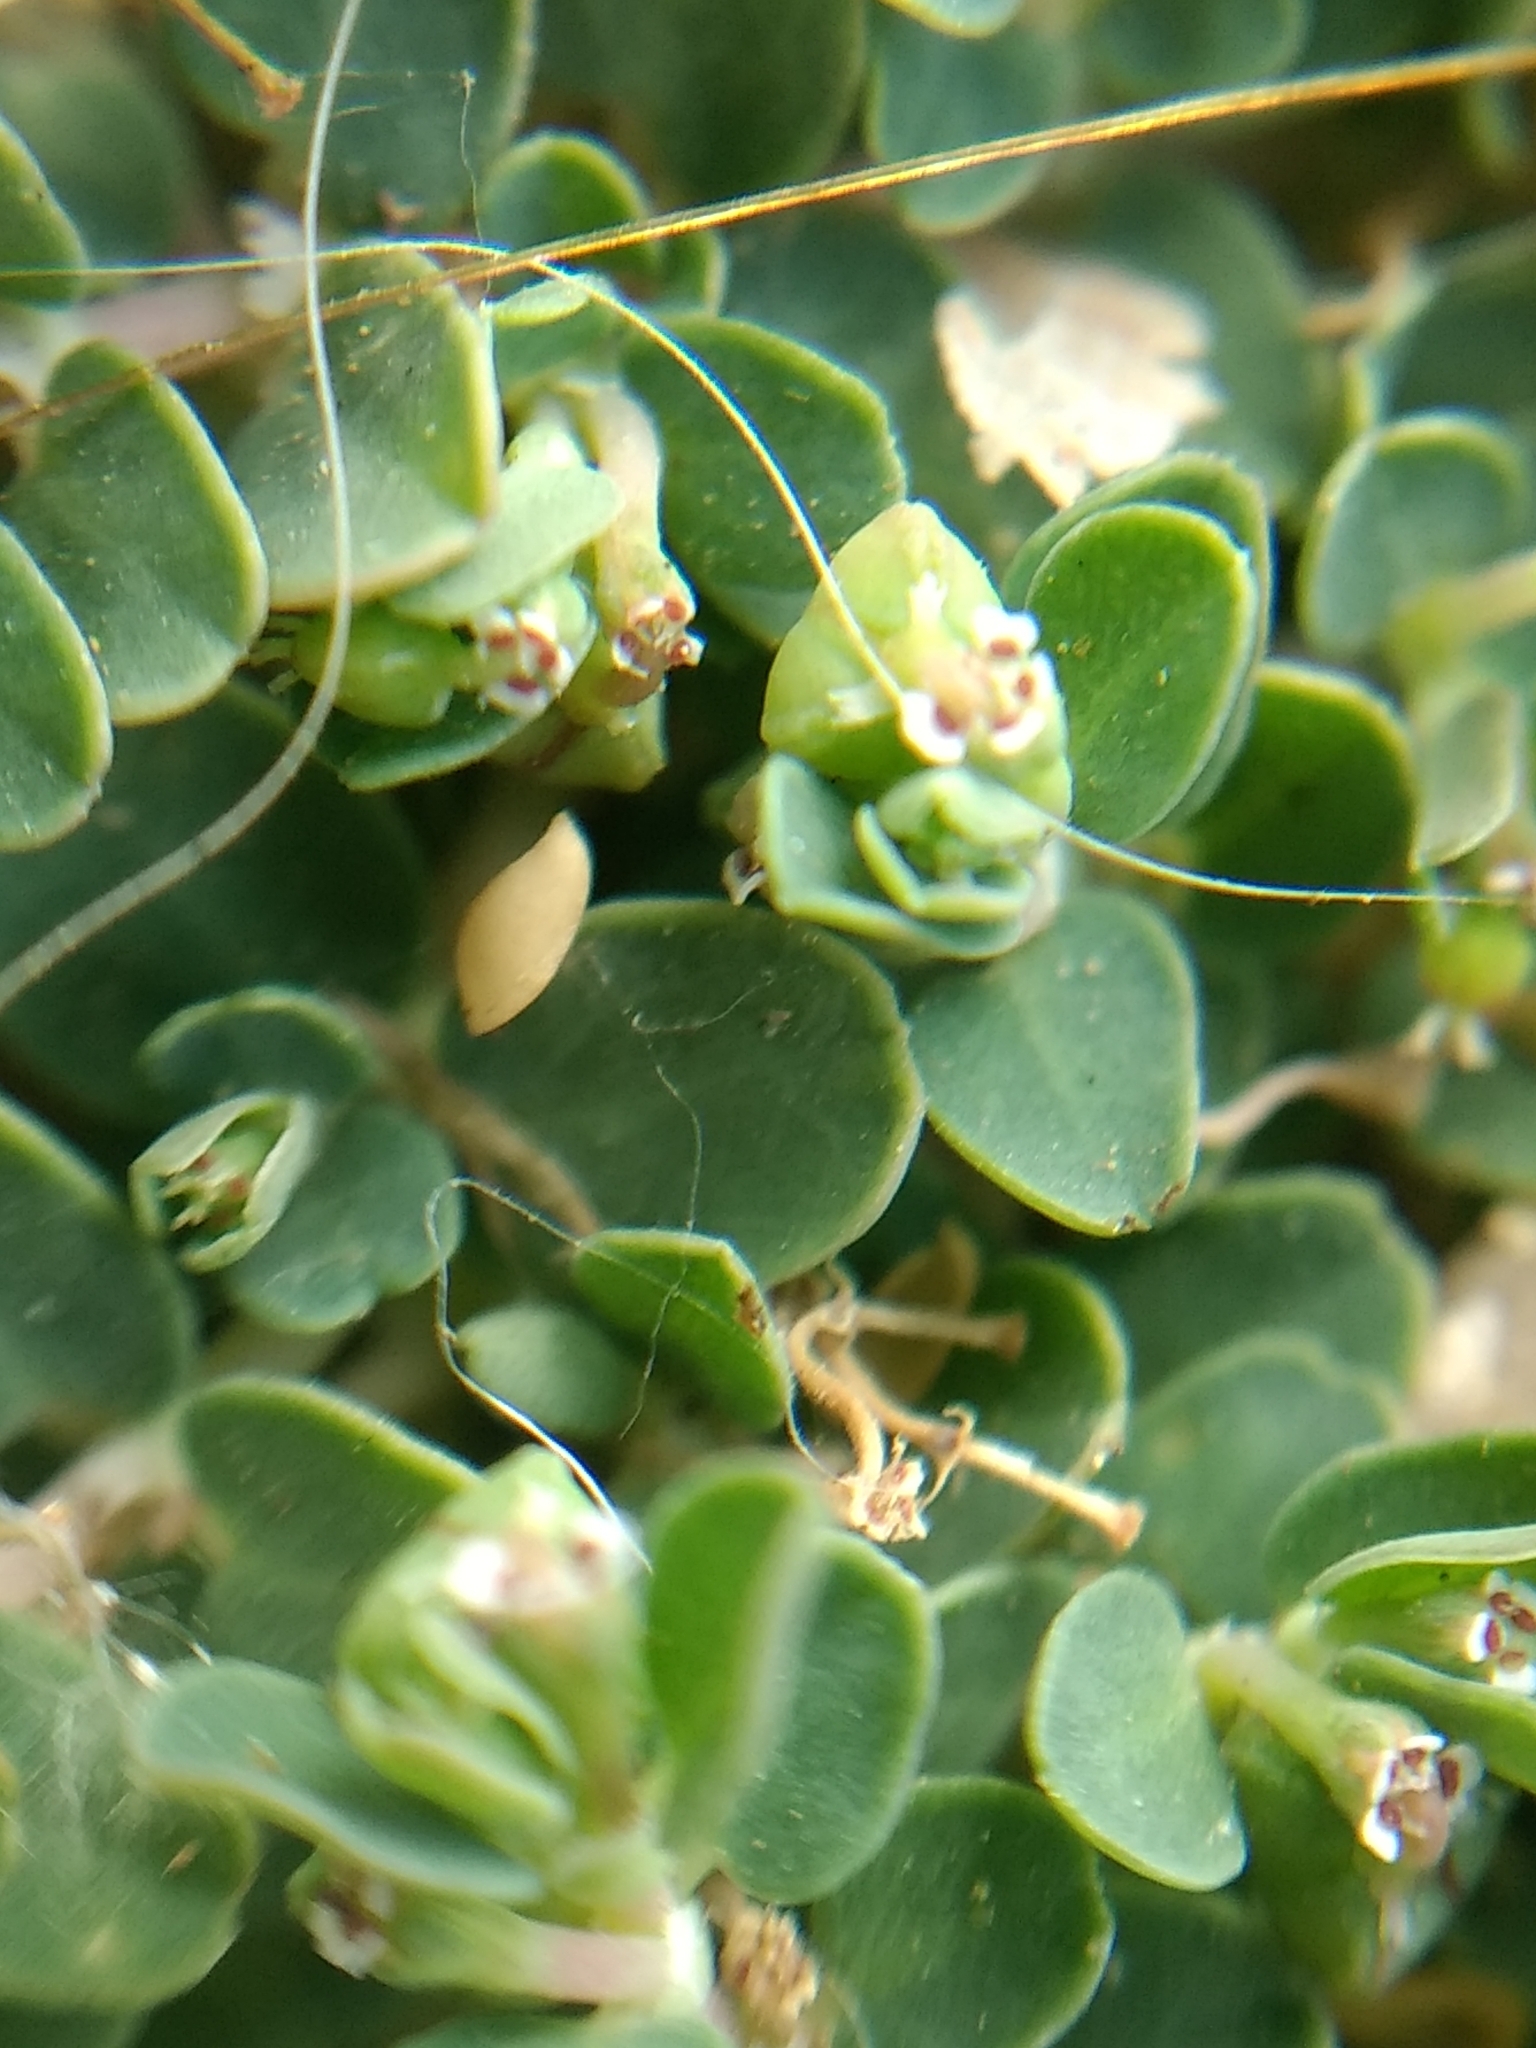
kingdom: Plantae
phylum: Tracheophyta
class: Magnoliopsida
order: Malpighiales
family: Euphorbiaceae
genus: Euphorbia
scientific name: Euphorbia serpens
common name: Matted sandmat
